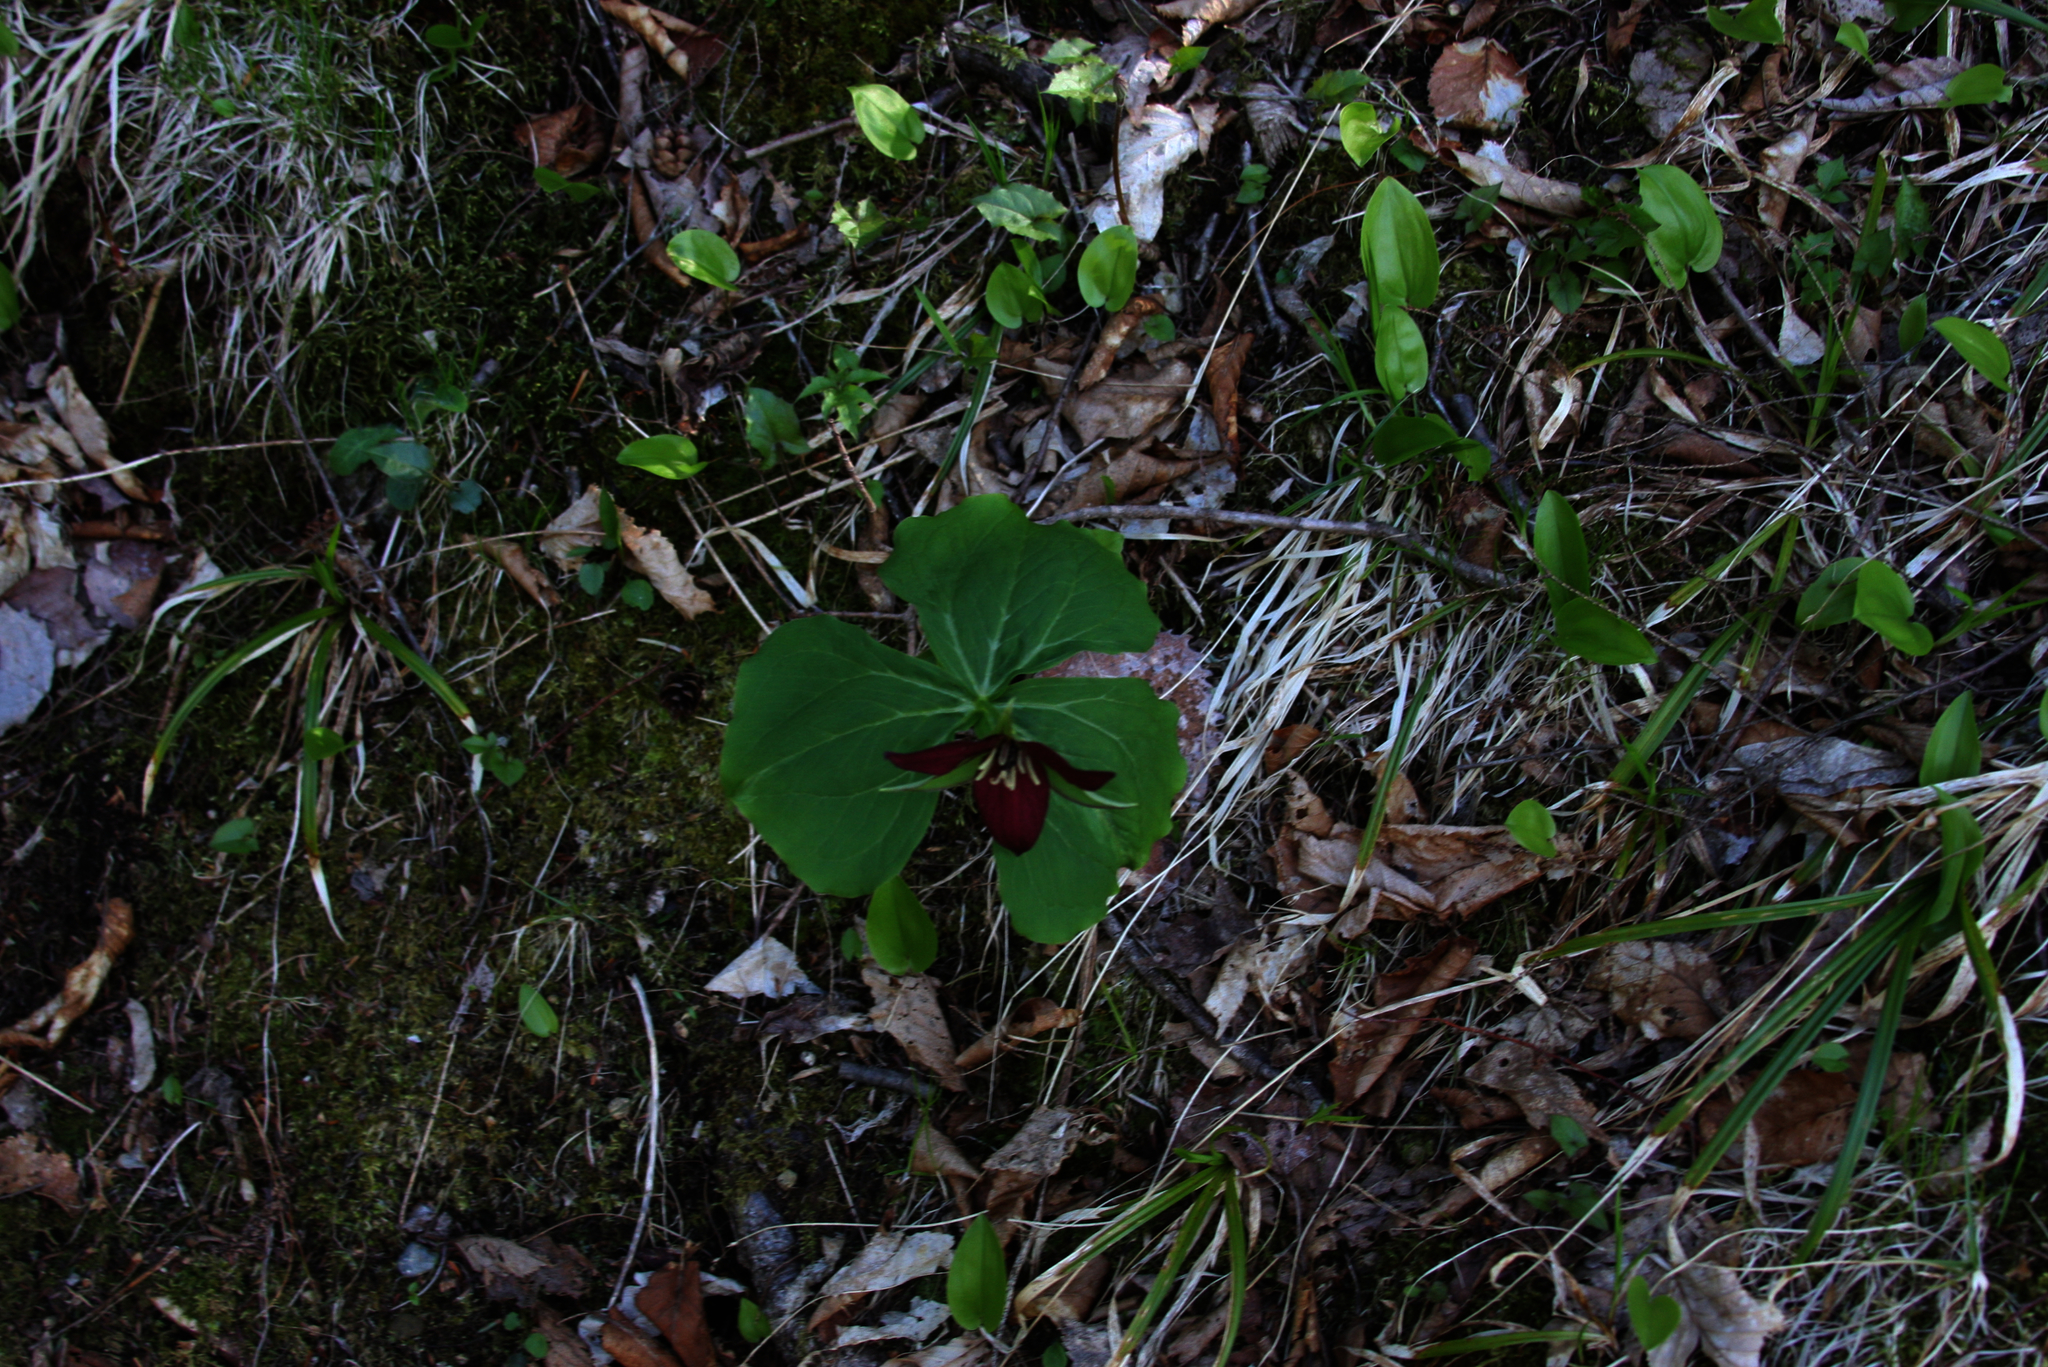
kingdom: Plantae
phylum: Tracheophyta
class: Liliopsida
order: Liliales
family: Melanthiaceae
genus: Trillium
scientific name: Trillium erectum
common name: Purple trillium
